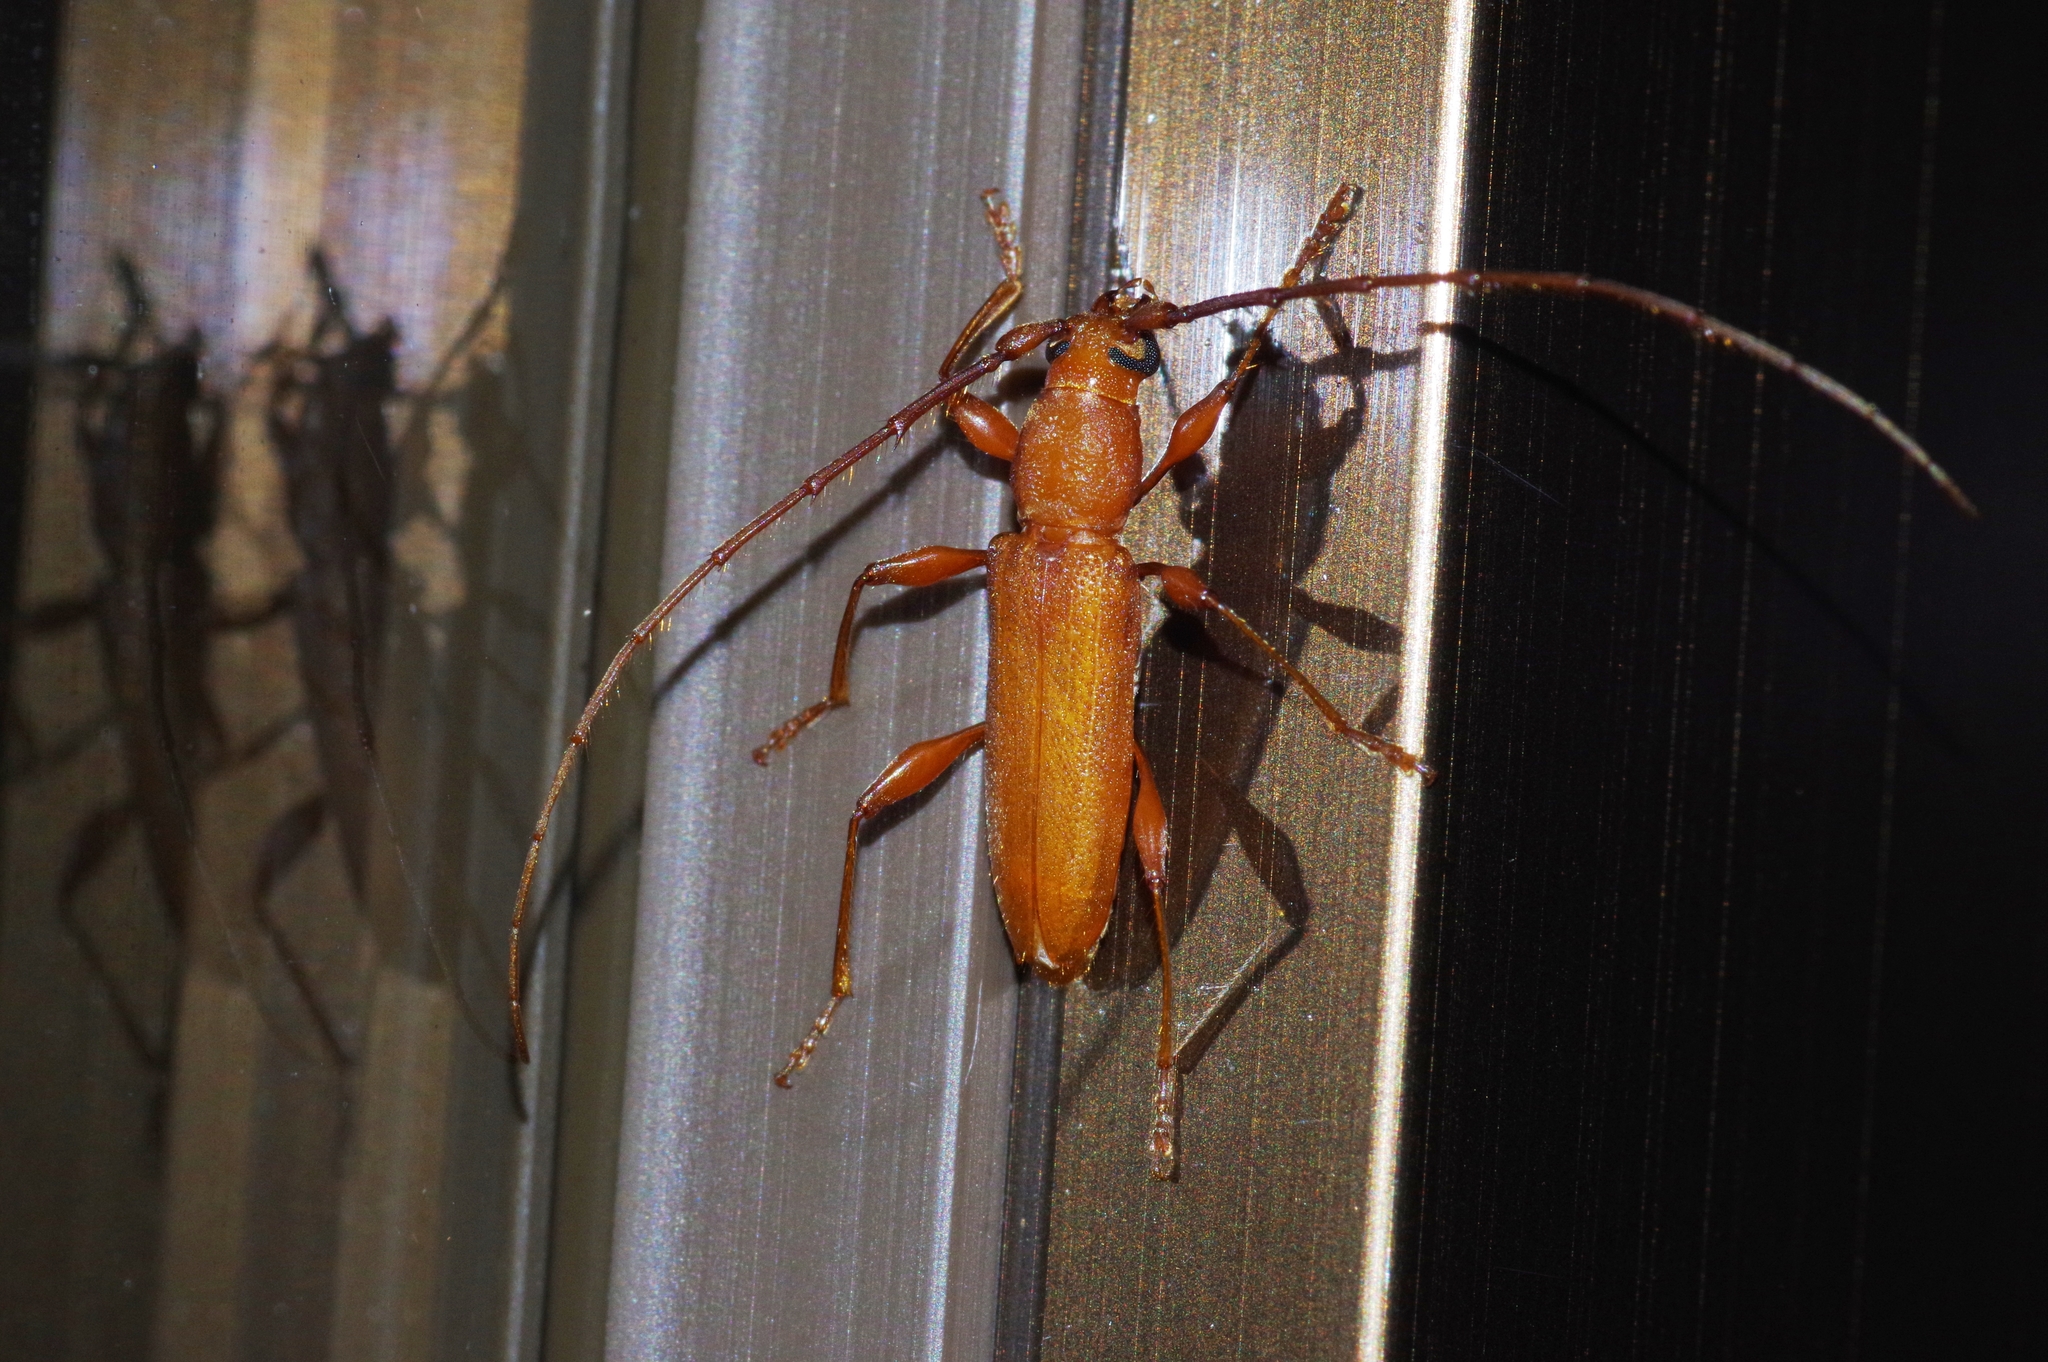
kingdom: Animalia
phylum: Arthropoda
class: Insecta
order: Coleoptera
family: Cerambycidae
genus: Nysina
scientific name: Nysina insularis
